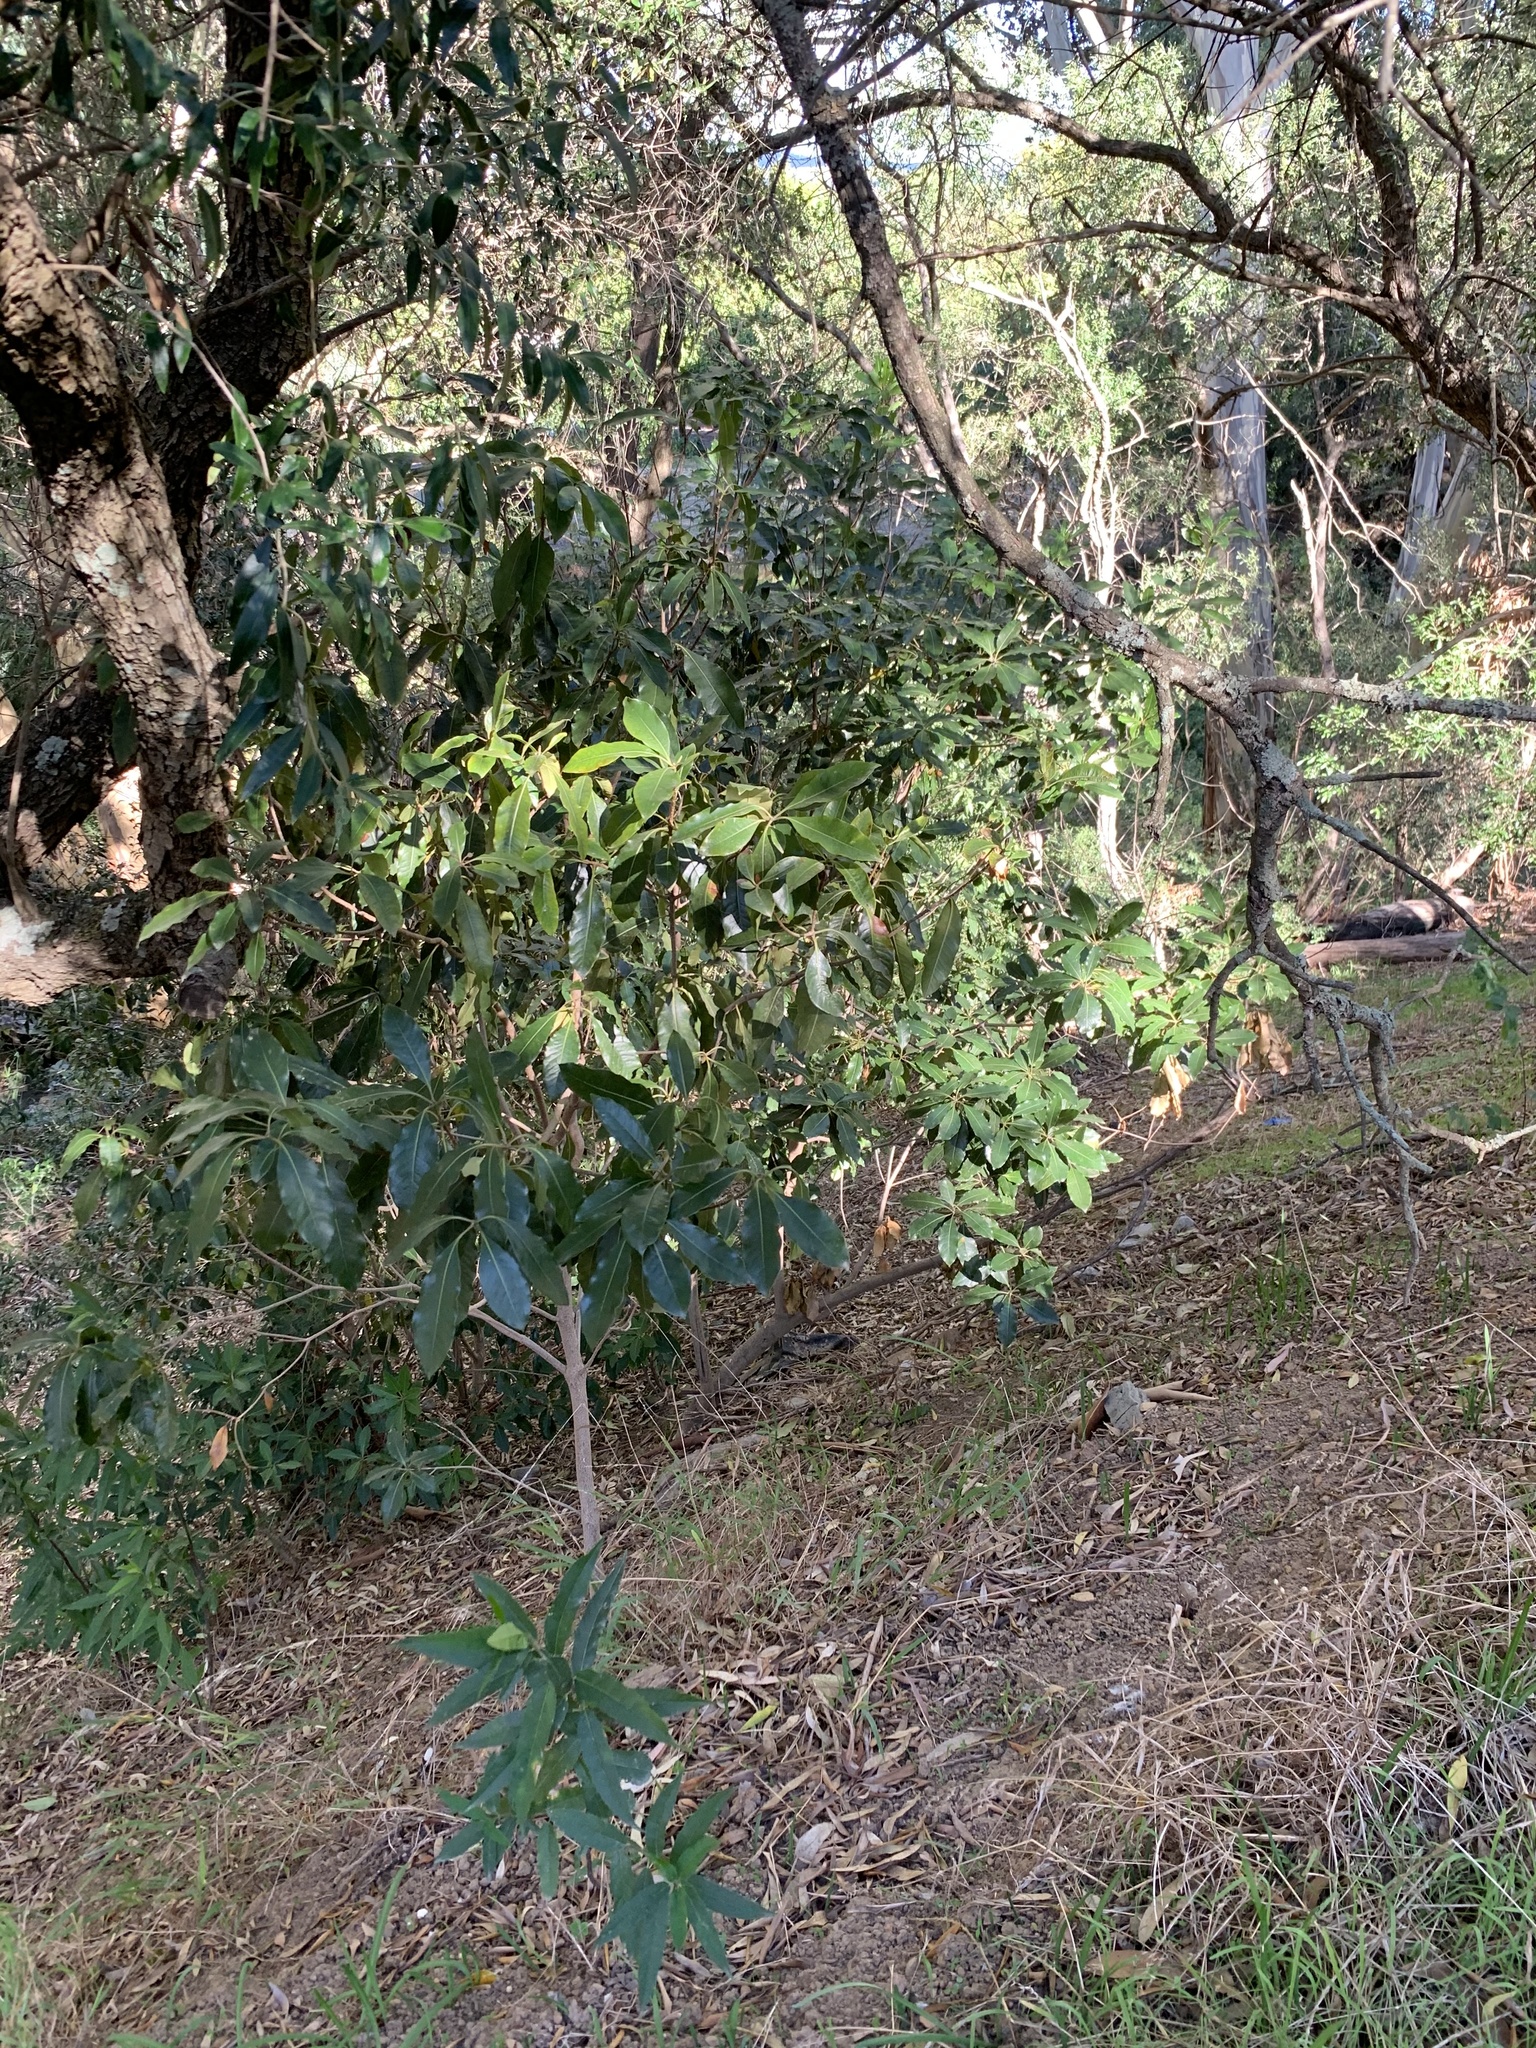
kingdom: Plantae
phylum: Tracheophyta
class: Magnoliopsida
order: Apiales
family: Pittosporaceae
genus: Pittosporum
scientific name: Pittosporum undulatum
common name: Australian cheesewood
